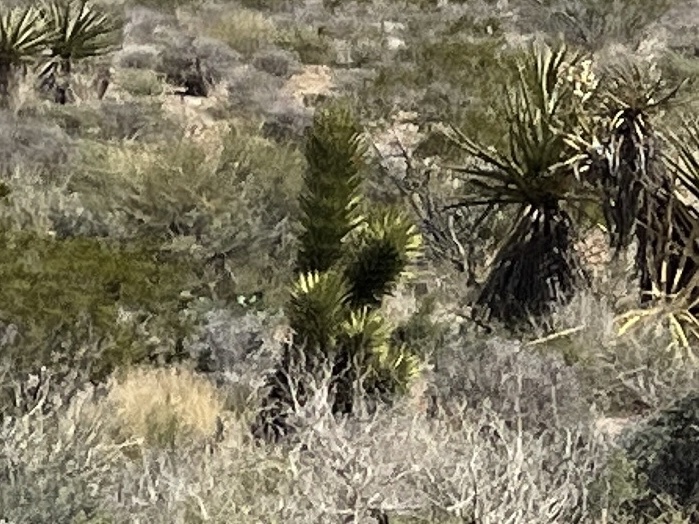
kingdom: Plantae
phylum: Tracheophyta
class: Liliopsida
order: Asparagales
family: Asparagaceae
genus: Yucca
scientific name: Yucca brevifolia
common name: Joshua tree
